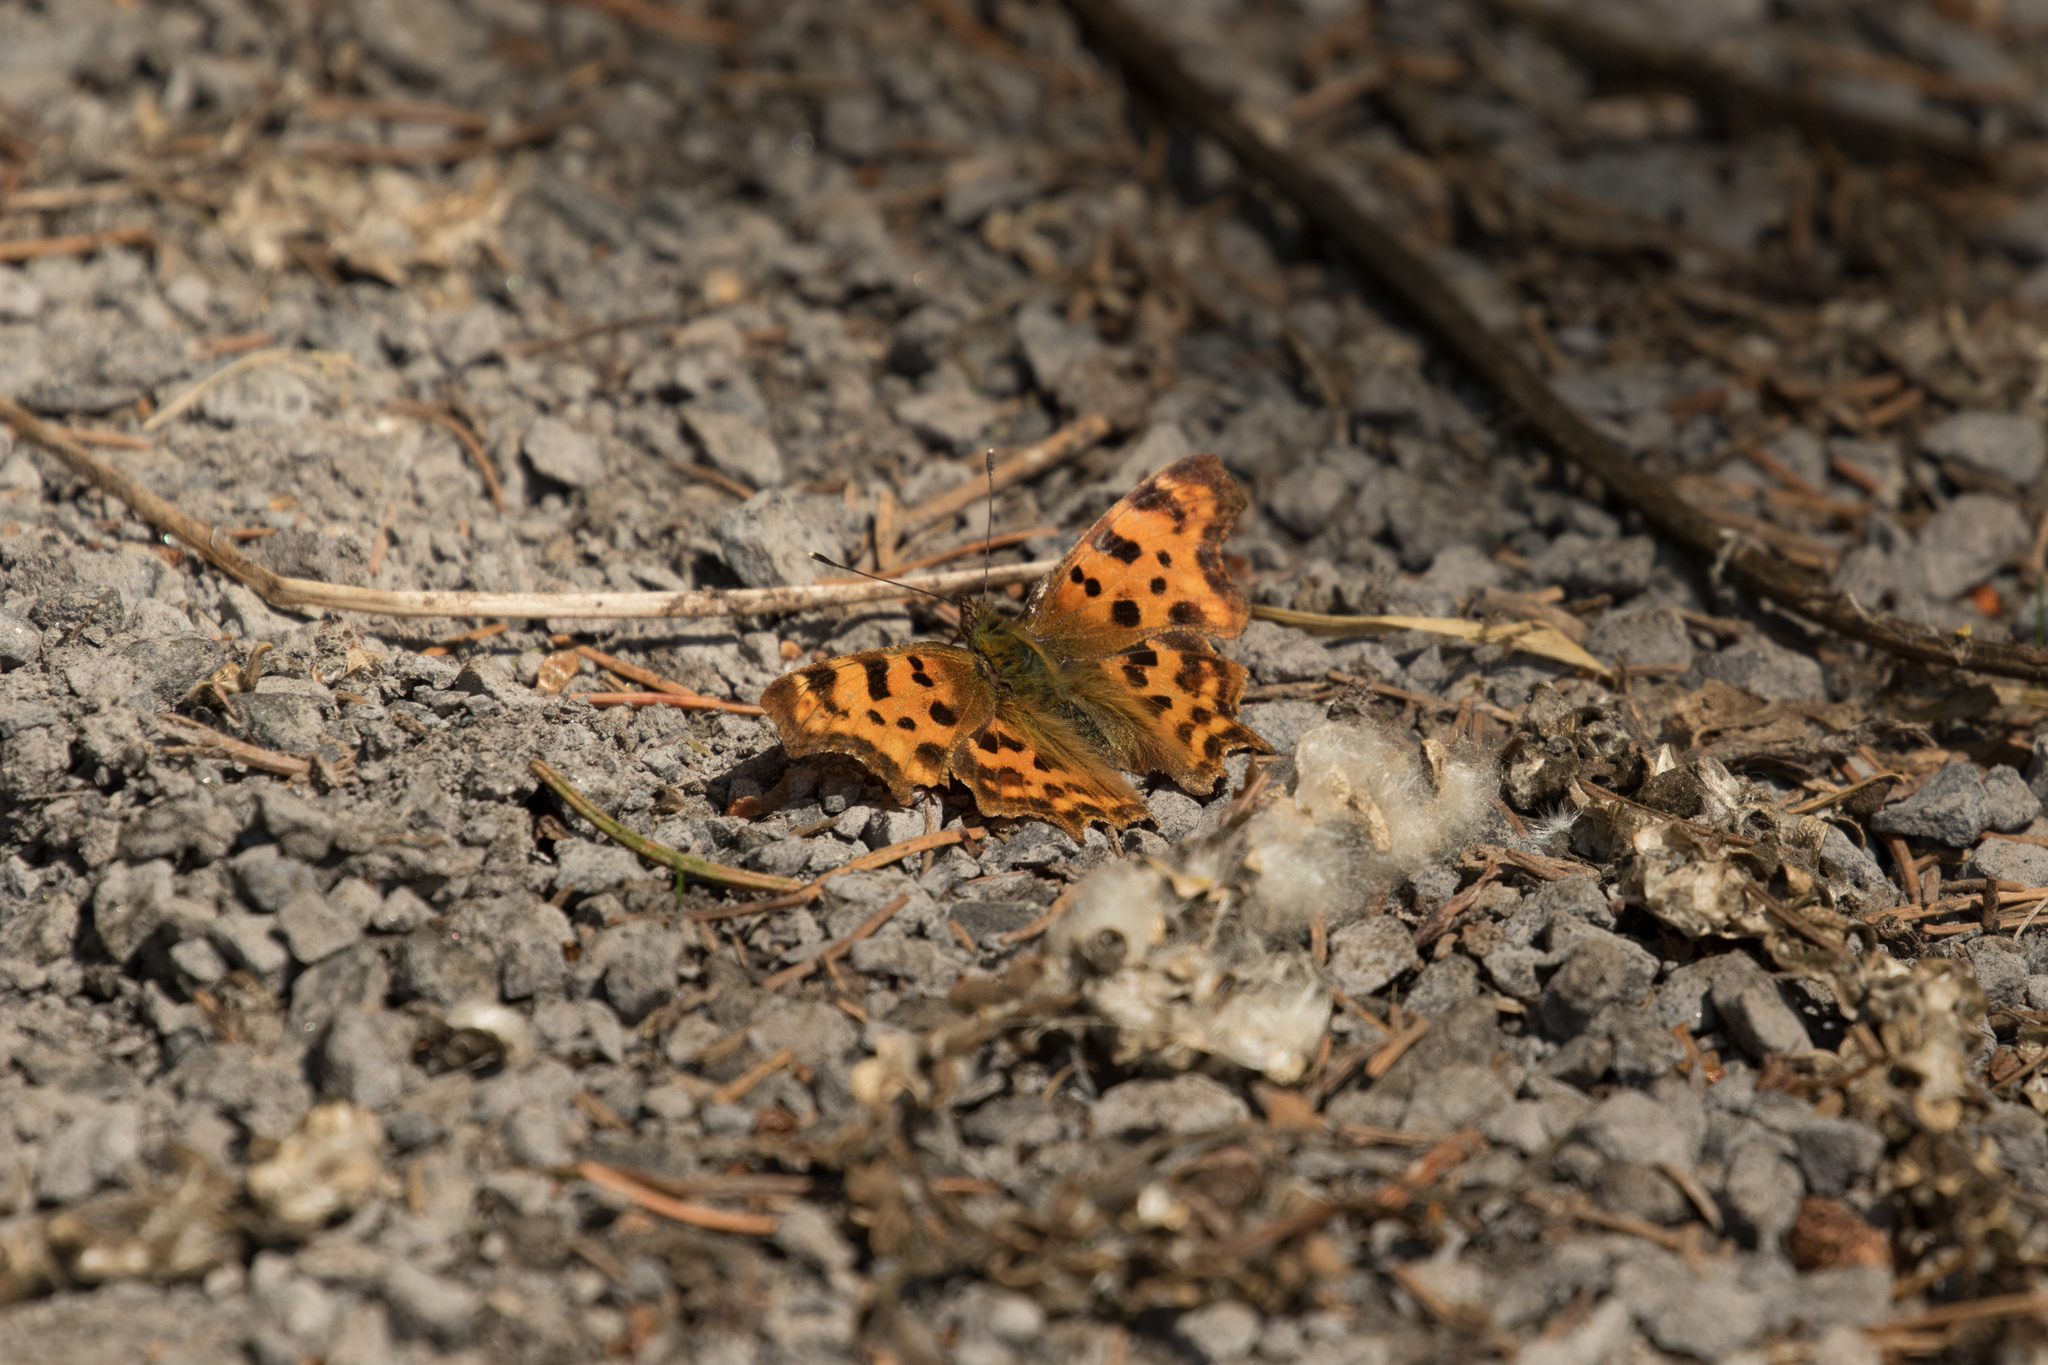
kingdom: Animalia
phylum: Arthropoda
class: Insecta
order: Lepidoptera
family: Nymphalidae
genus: Polygonia
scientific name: Polygonia c-album
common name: Comma
